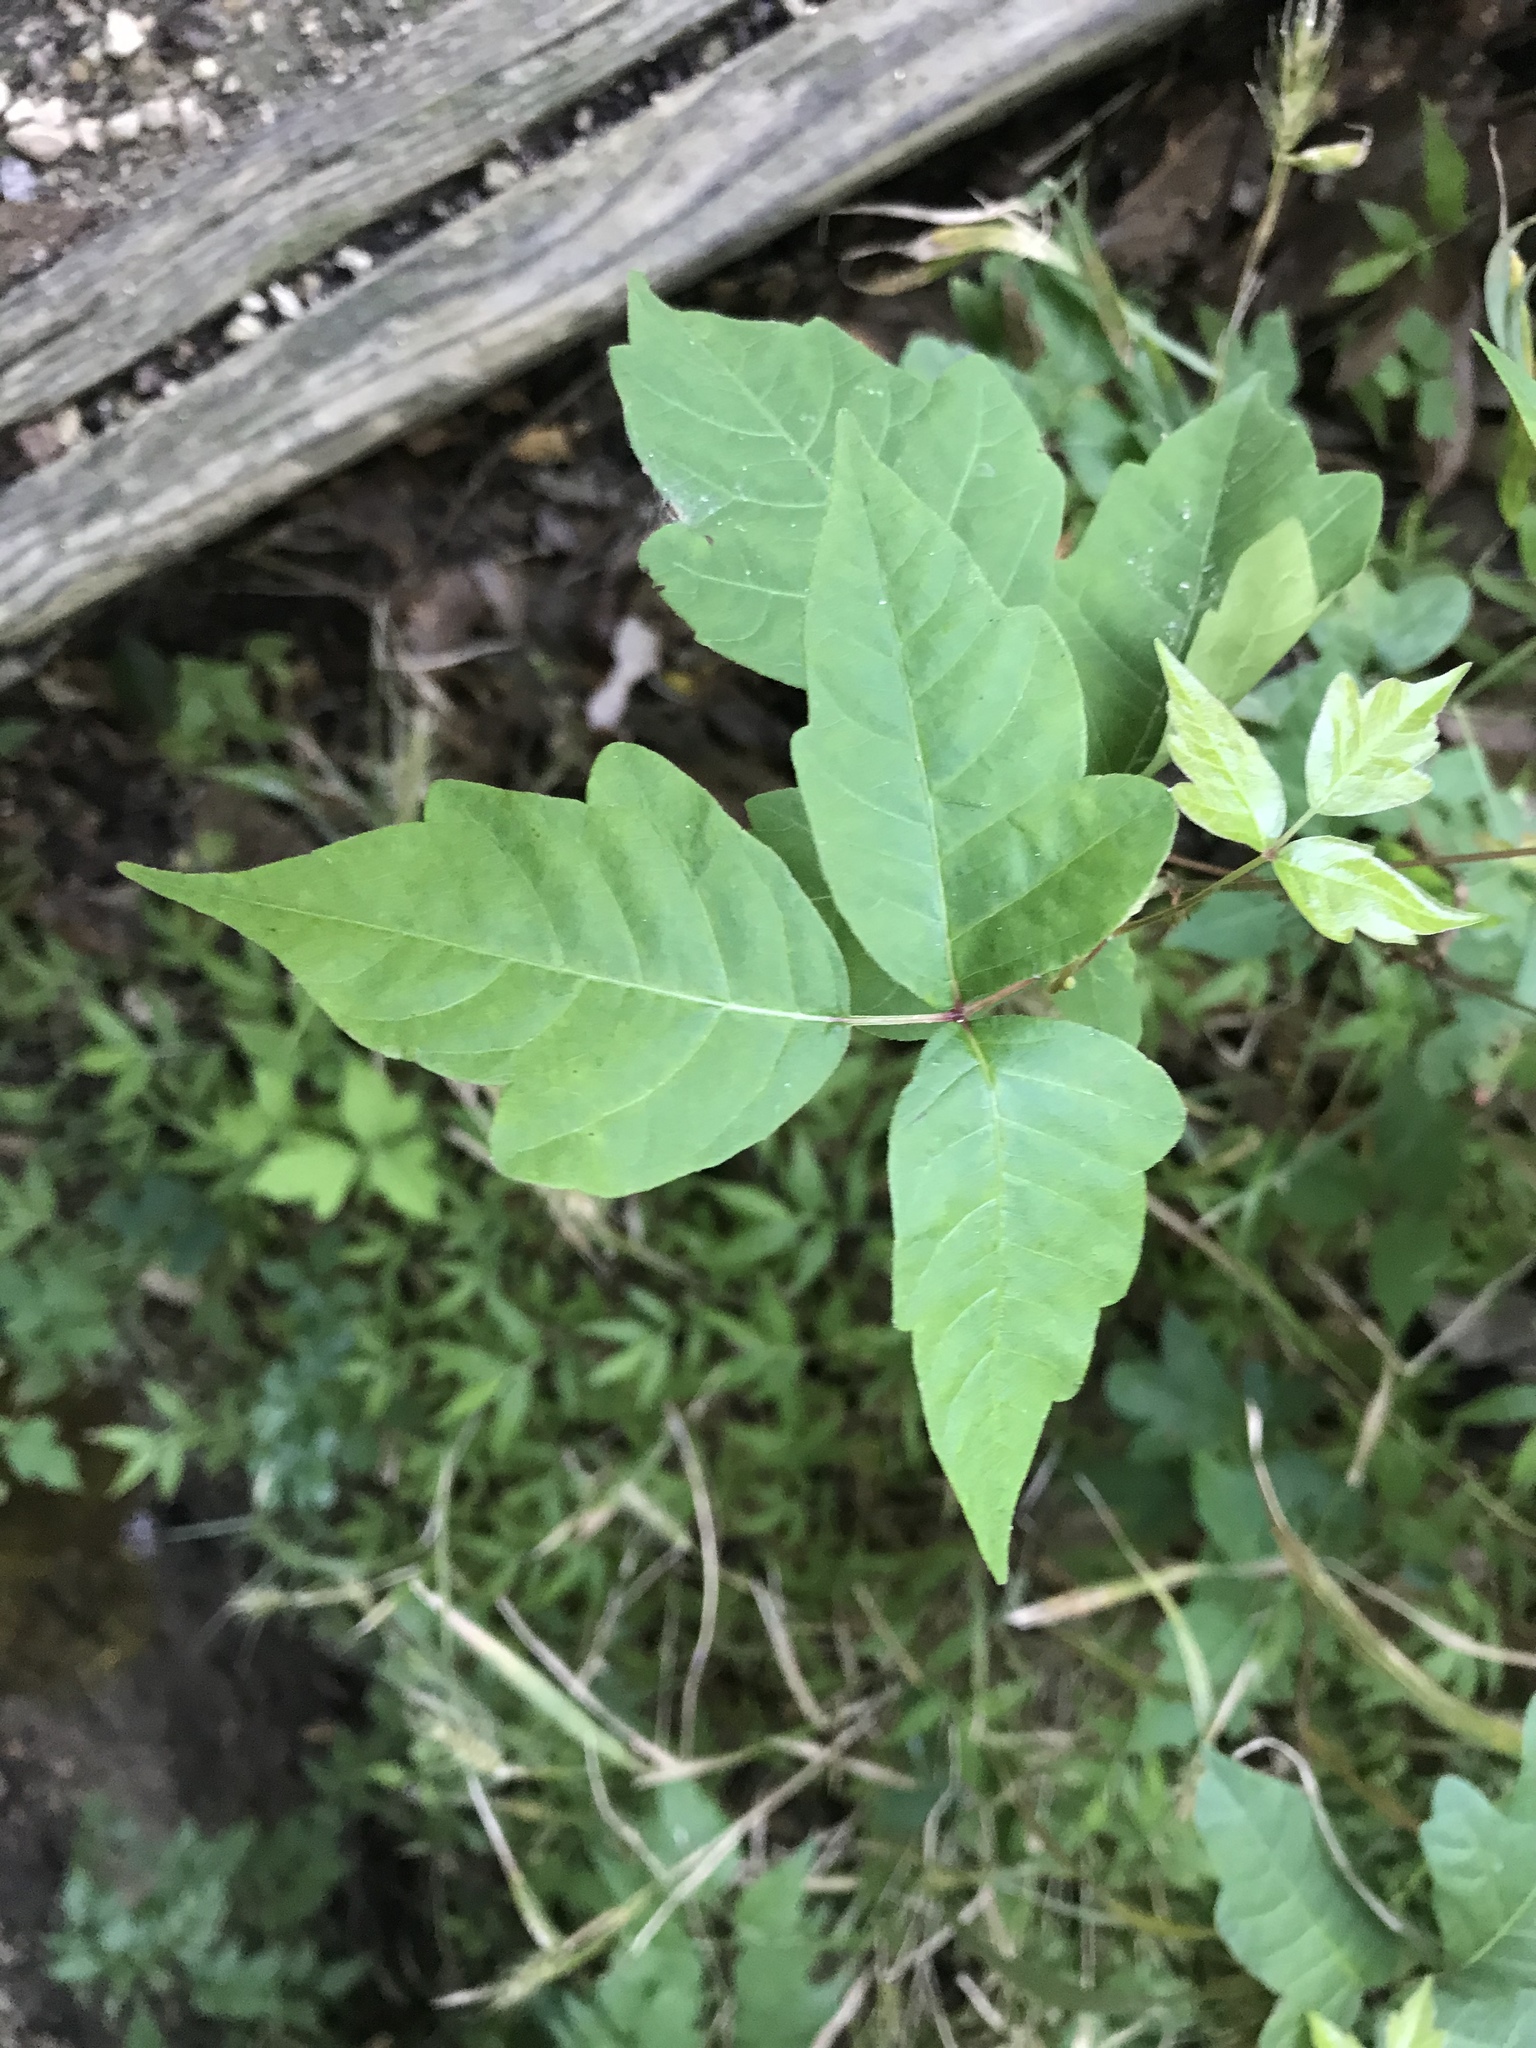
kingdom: Plantae
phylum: Tracheophyta
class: Magnoliopsida
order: Sapindales
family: Anacardiaceae
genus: Toxicodendron
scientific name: Toxicodendron radicans
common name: Poison ivy
